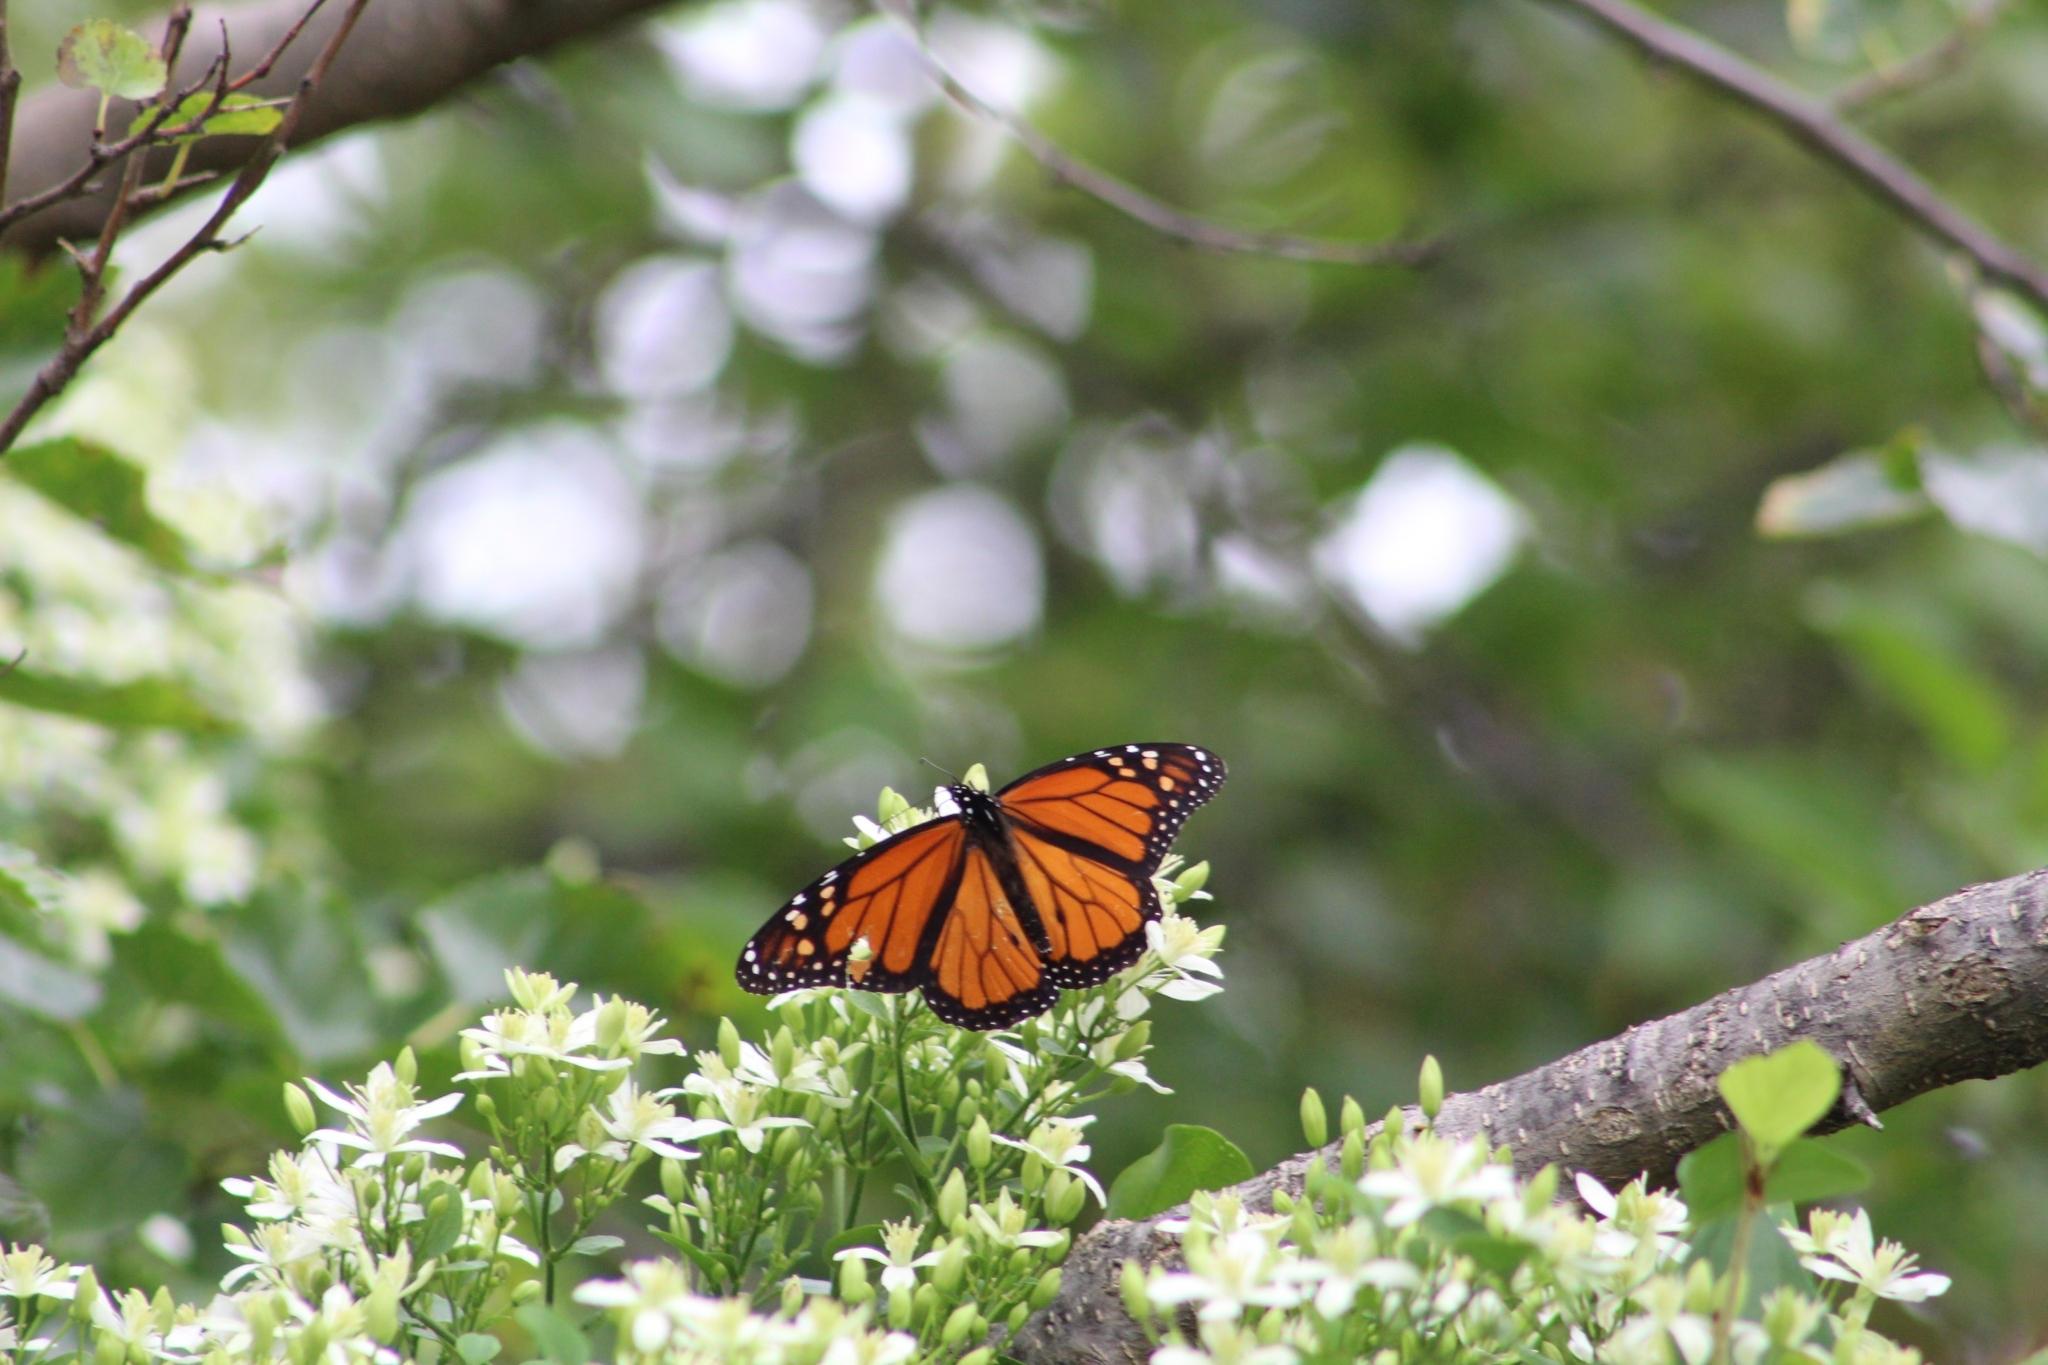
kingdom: Animalia
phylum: Arthropoda
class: Insecta
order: Lepidoptera
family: Nymphalidae
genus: Danaus
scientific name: Danaus plexippus
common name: Monarch
